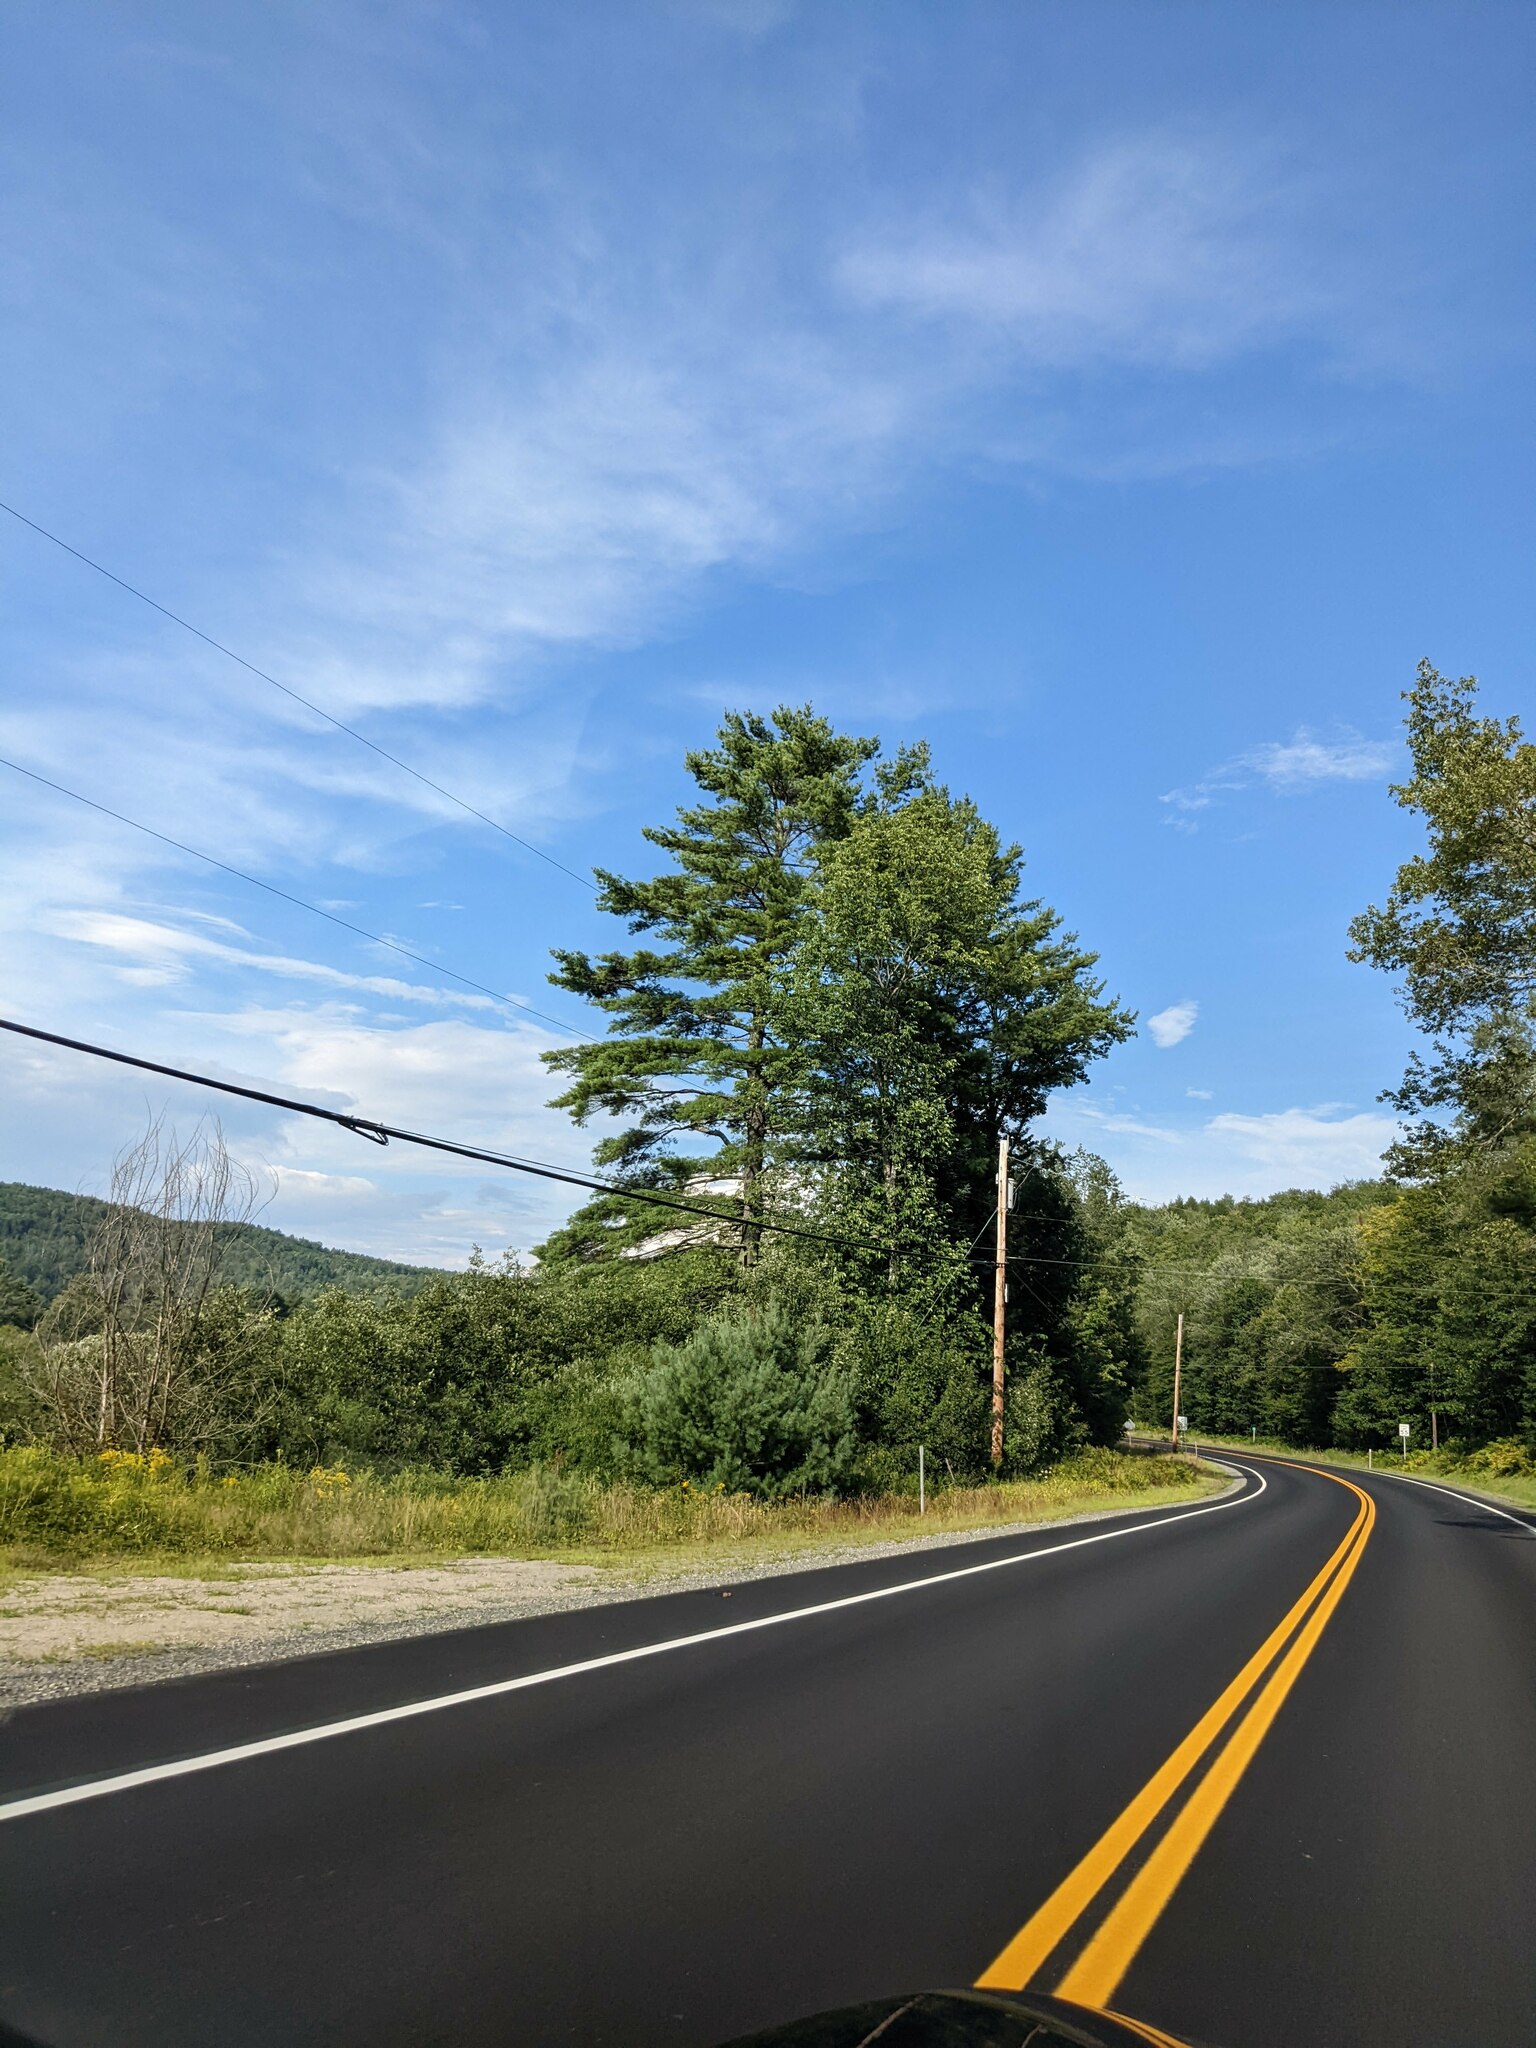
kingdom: Plantae
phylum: Tracheophyta
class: Pinopsida
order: Pinales
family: Pinaceae
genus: Pinus
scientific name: Pinus strobus
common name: Weymouth pine
